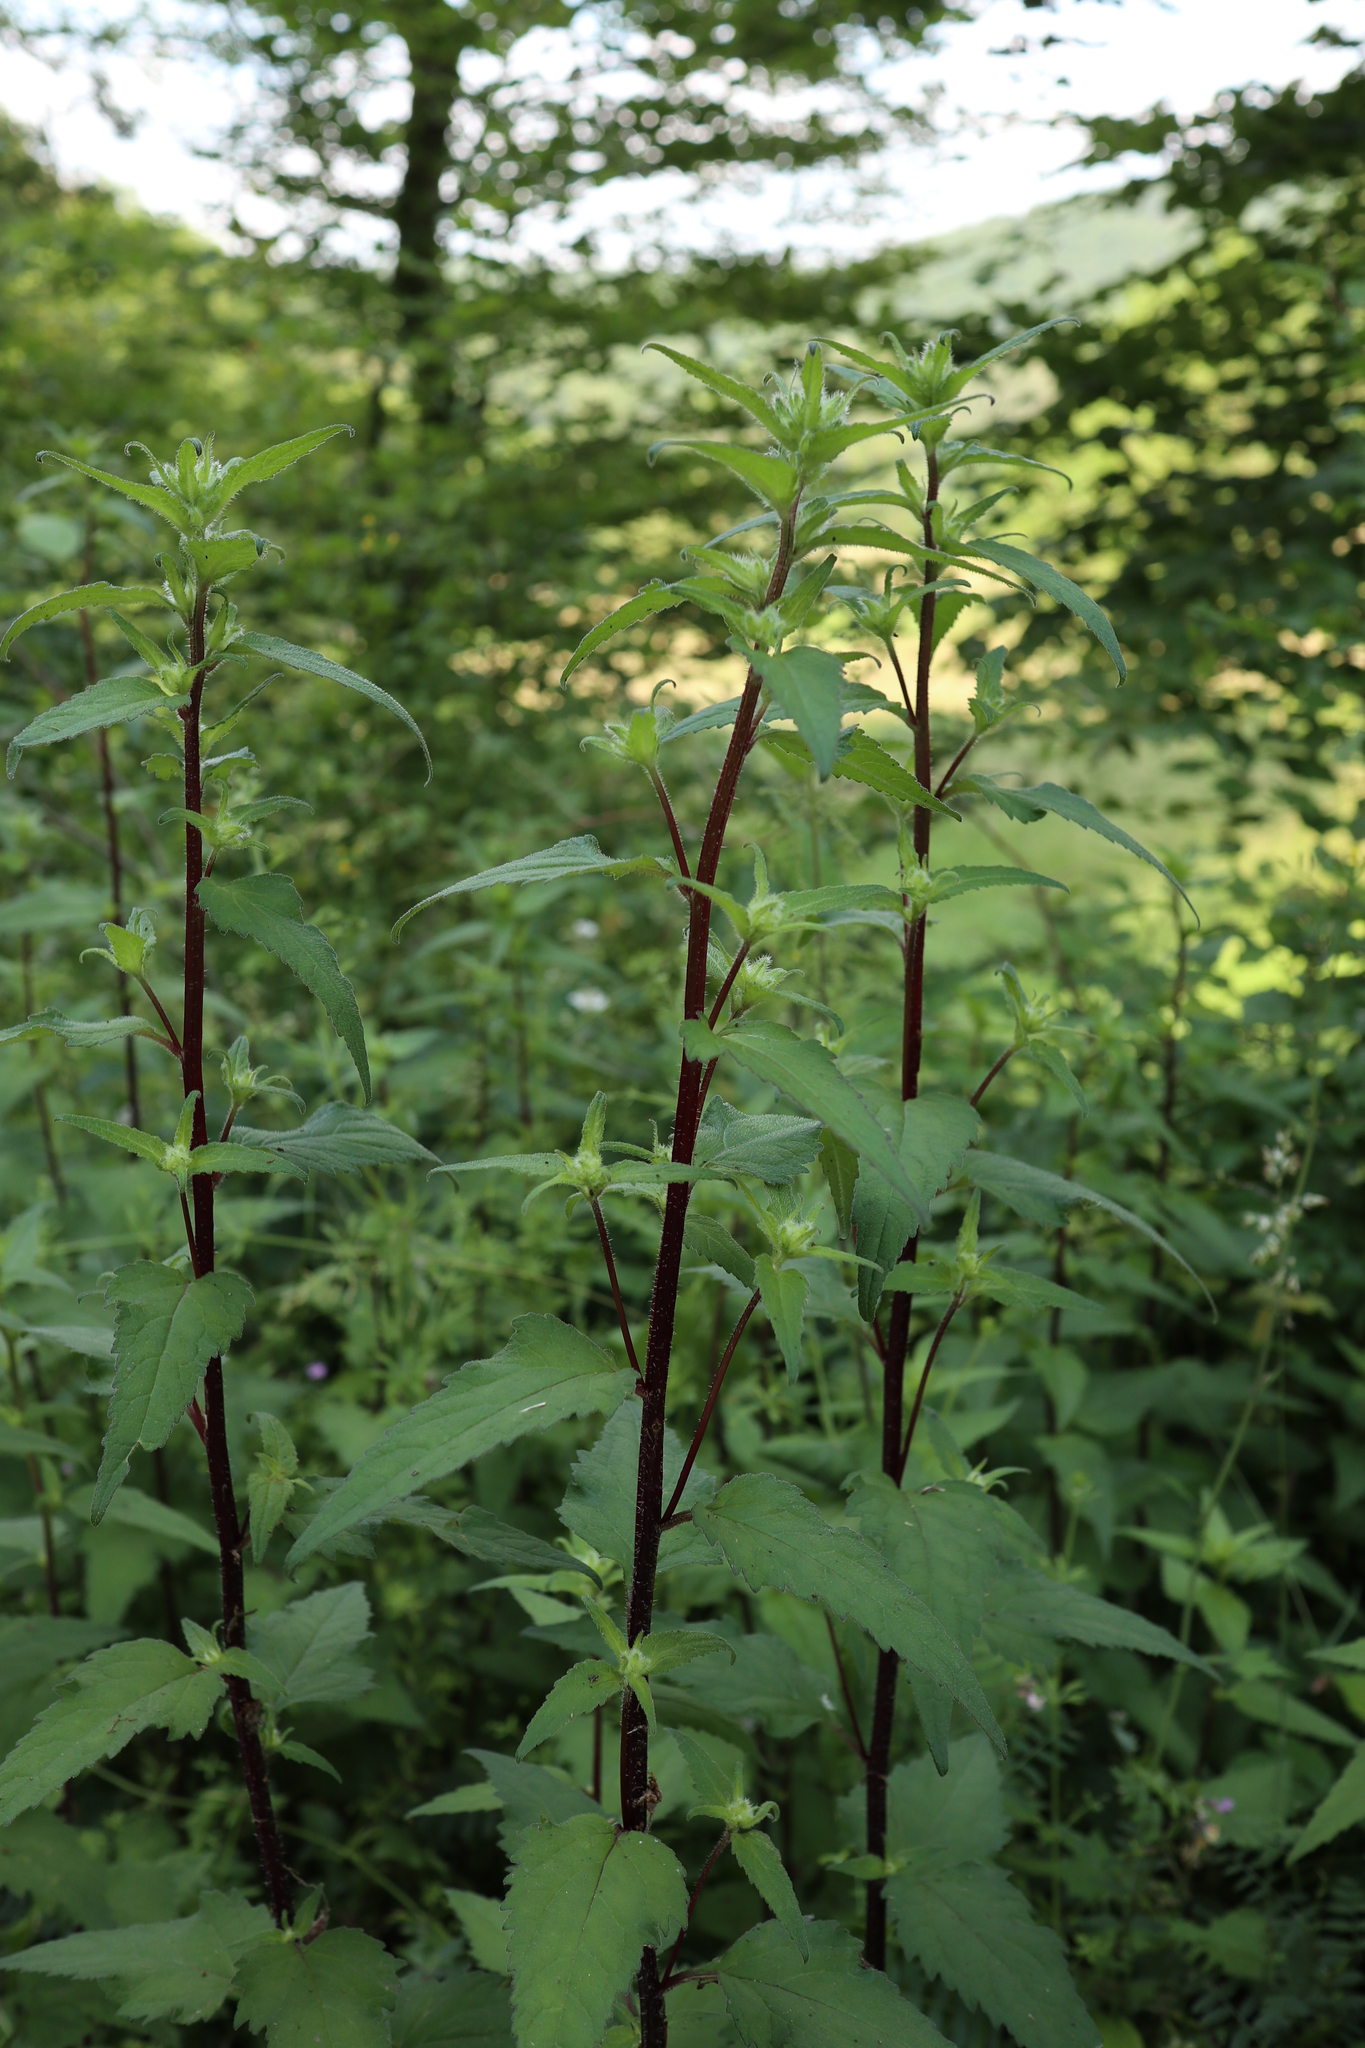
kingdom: Plantae
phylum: Tracheophyta
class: Magnoliopsida
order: Asterales
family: Campanulaceae
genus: Campanula
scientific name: Campanula trachelium
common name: Nettle-leaved bellflower
